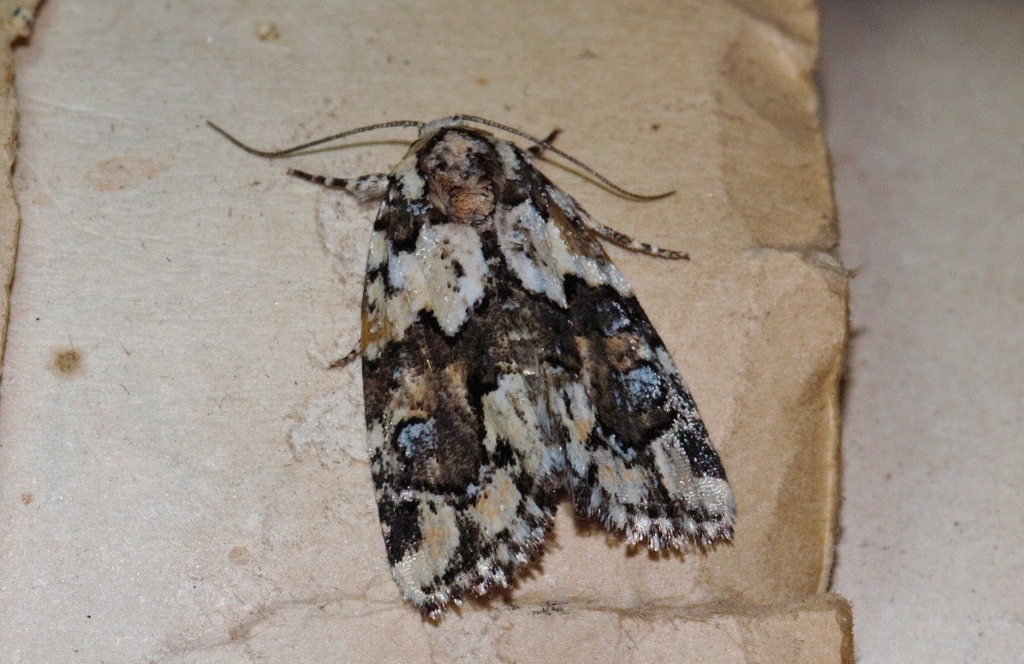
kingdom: Animalia
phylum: Arthropoda
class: Insecta
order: Lepidoptera
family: Noctuidae
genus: Cryphia
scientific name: Cryphia leucomelaena
